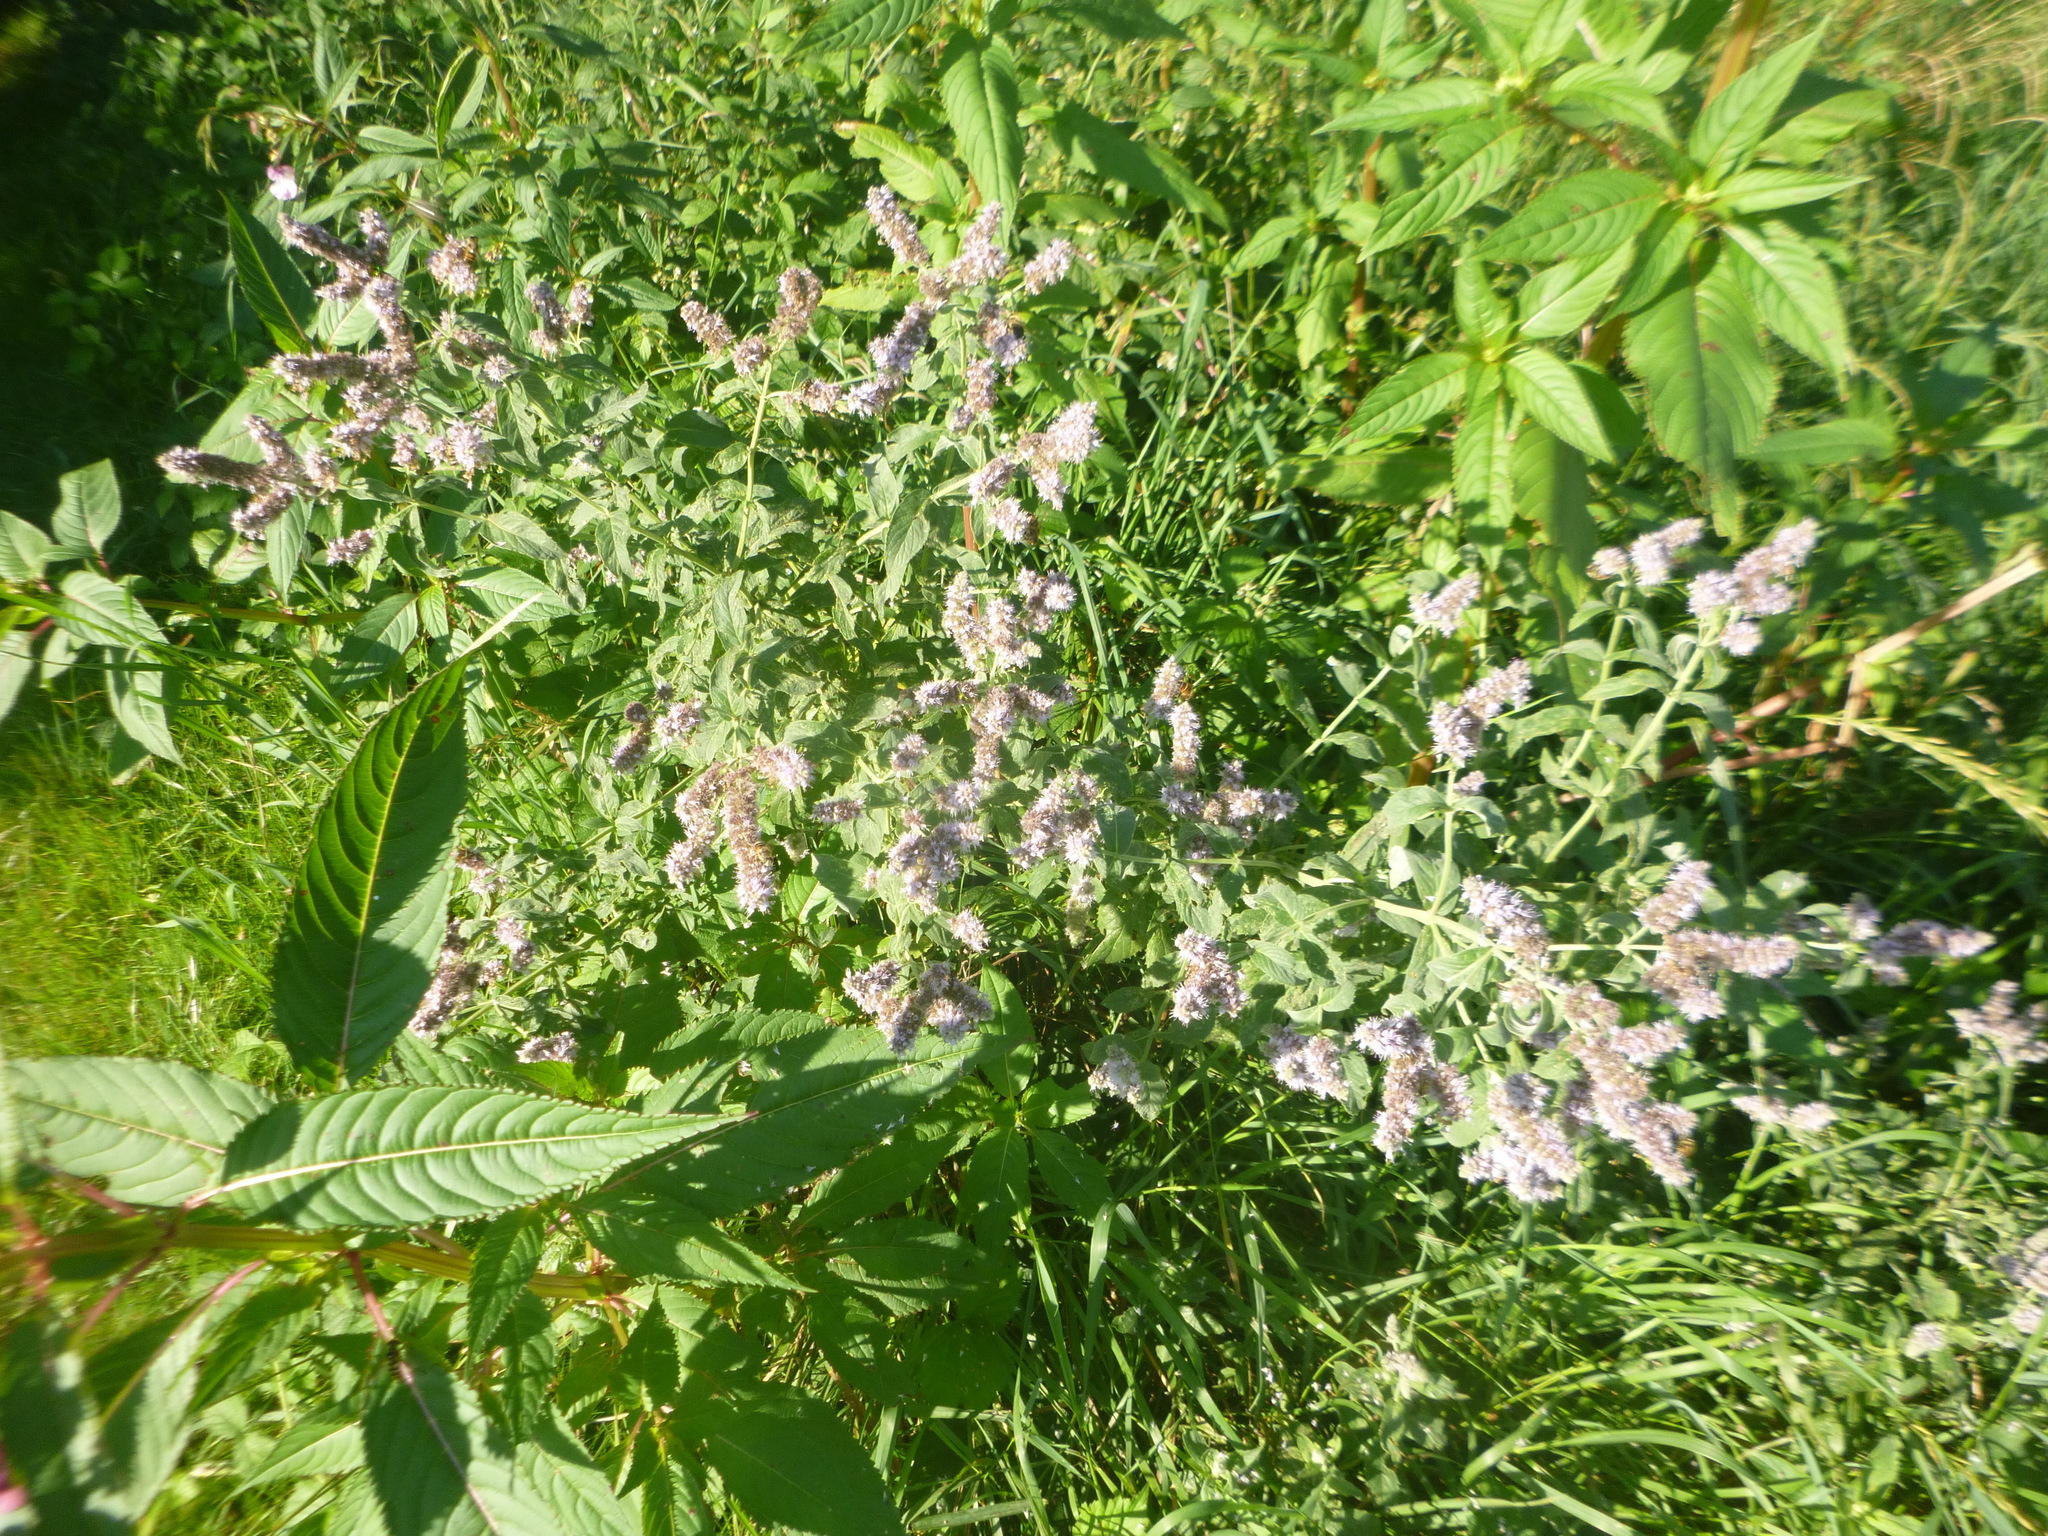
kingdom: Plantae
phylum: Tracheophyta
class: Magnoliopsida
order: Lamiales
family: Lamiaceae
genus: Mentha
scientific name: Mentha longifolia
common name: Horse mint
